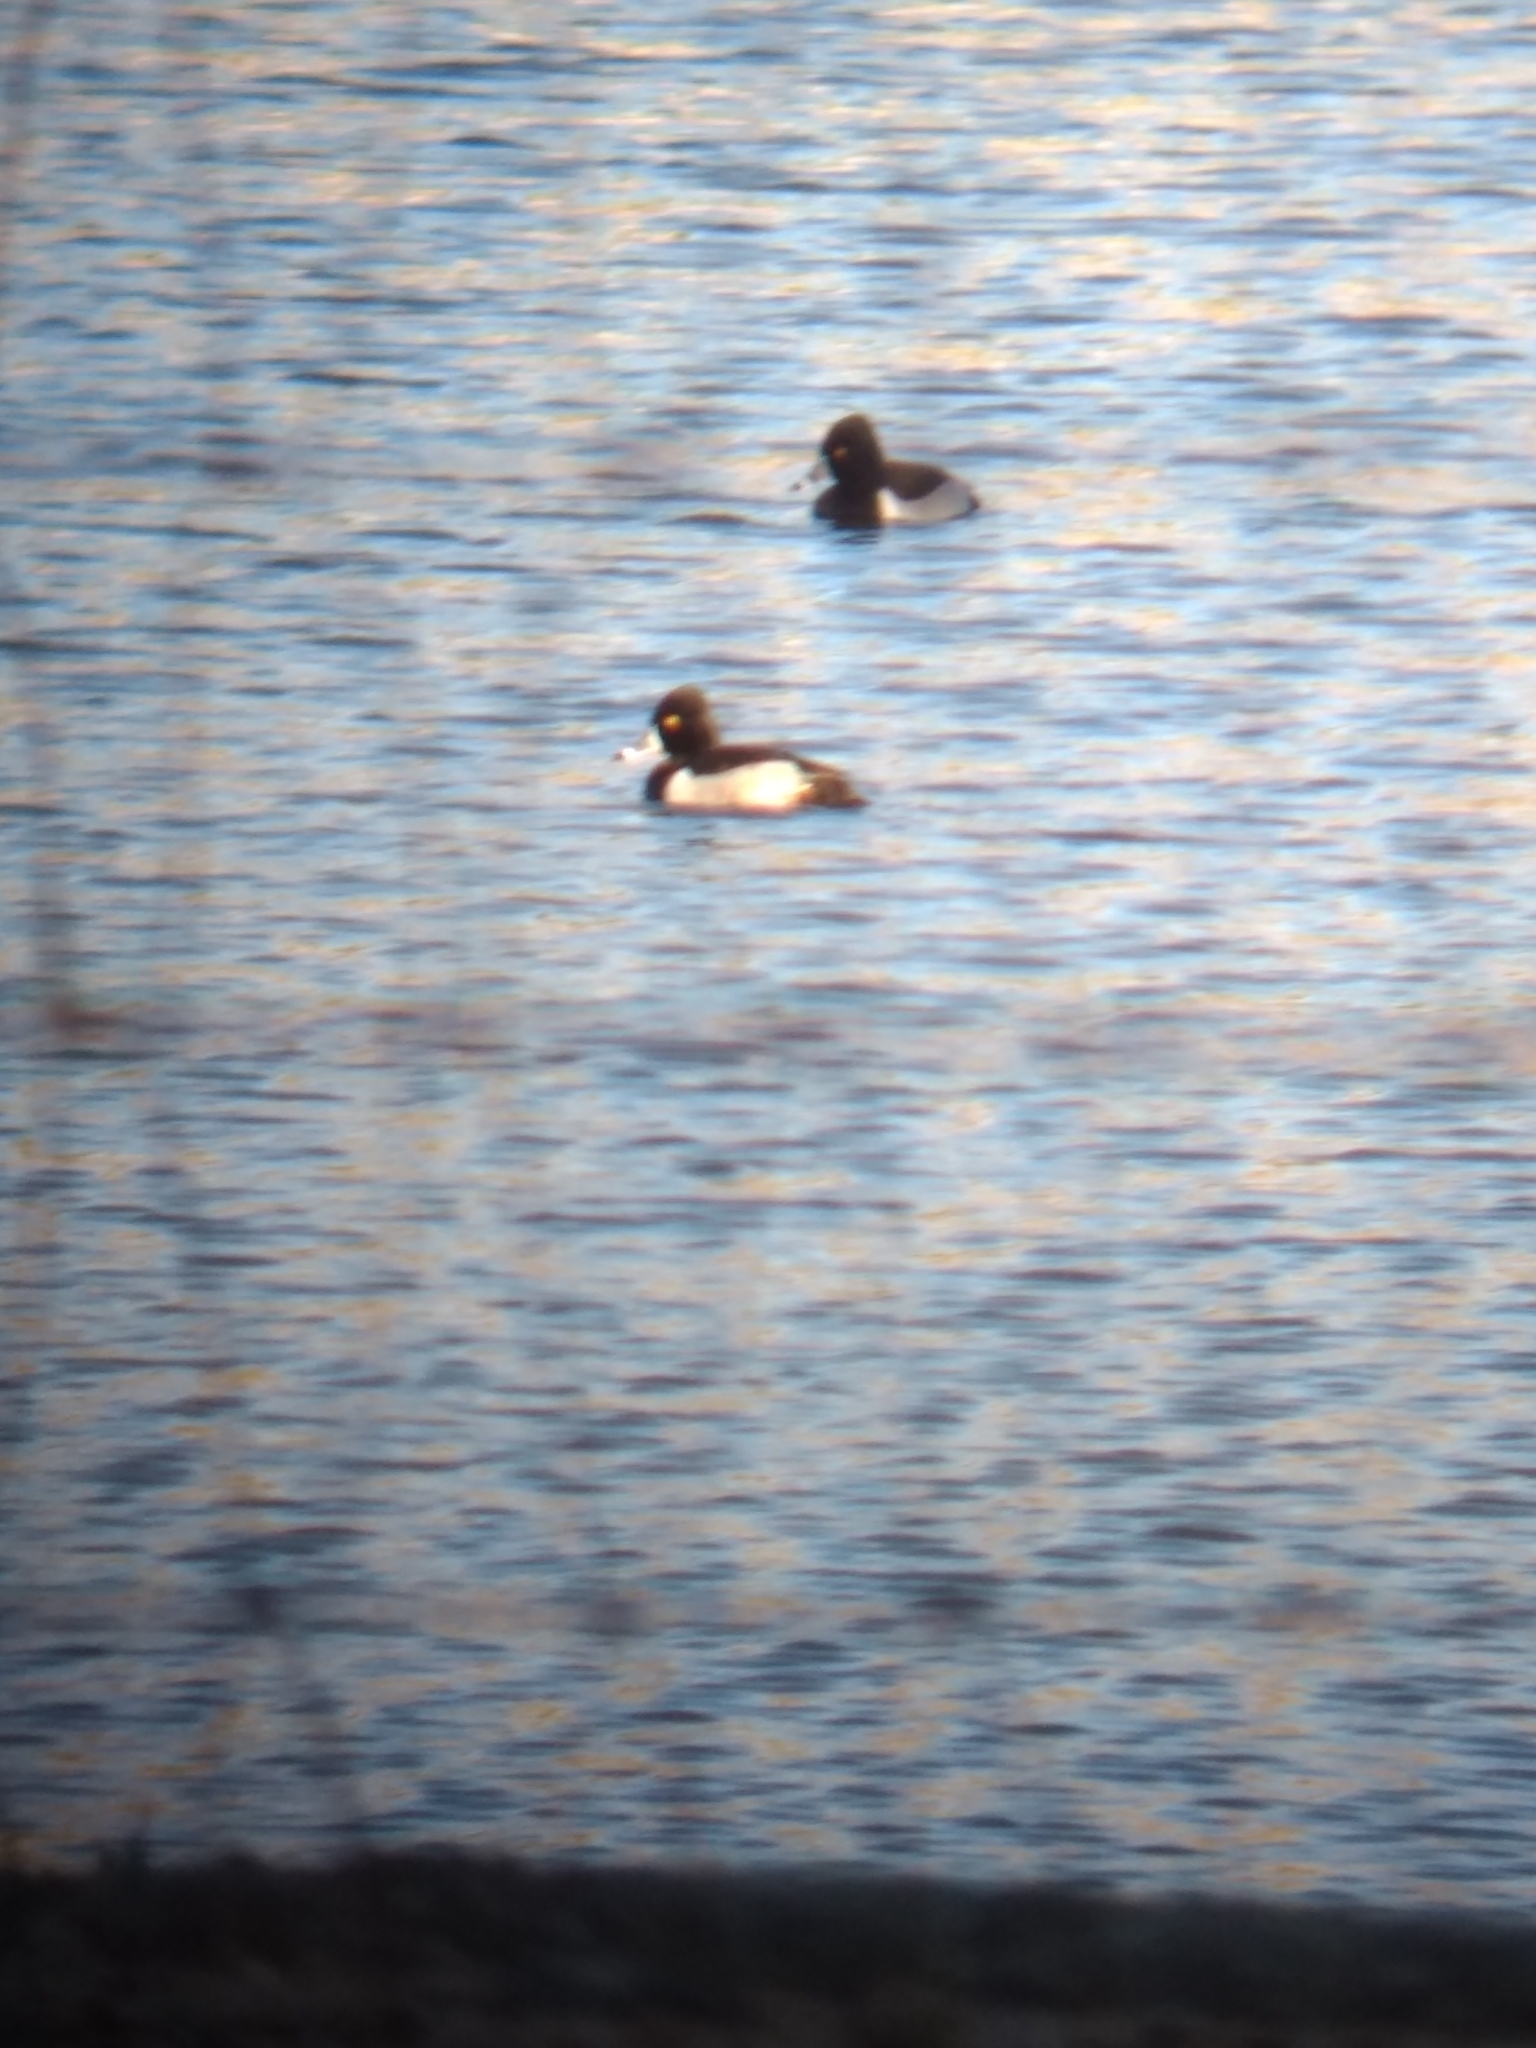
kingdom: Animalia
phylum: Chordata
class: Aves
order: Anseriformes
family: Anatidae
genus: Aythya
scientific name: Aythya collaris
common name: Ring-necked duck
